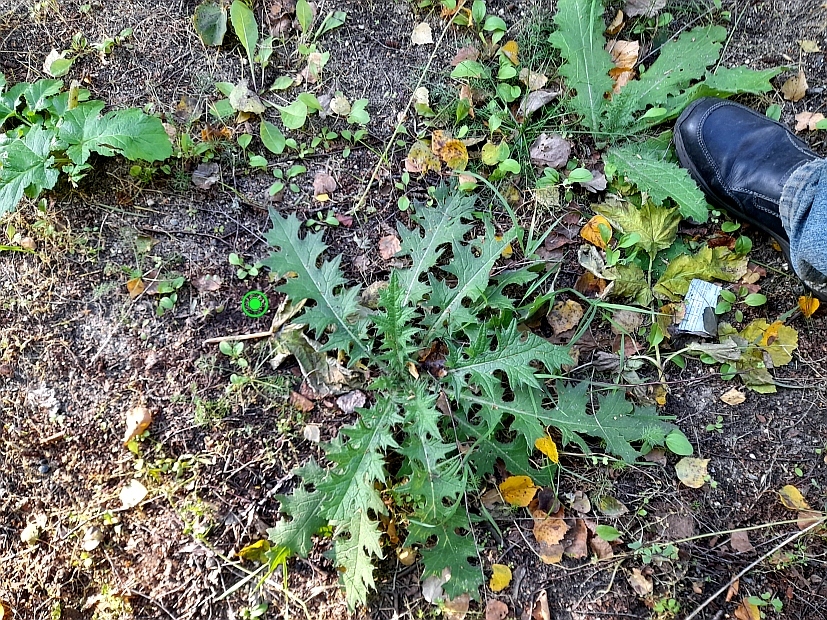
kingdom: Plantae
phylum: Tracheophyta
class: Magnoliopsida
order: Asterales
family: Asteraceae
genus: Cirsium
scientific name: Cirsium vulgare
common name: Bull thistle
